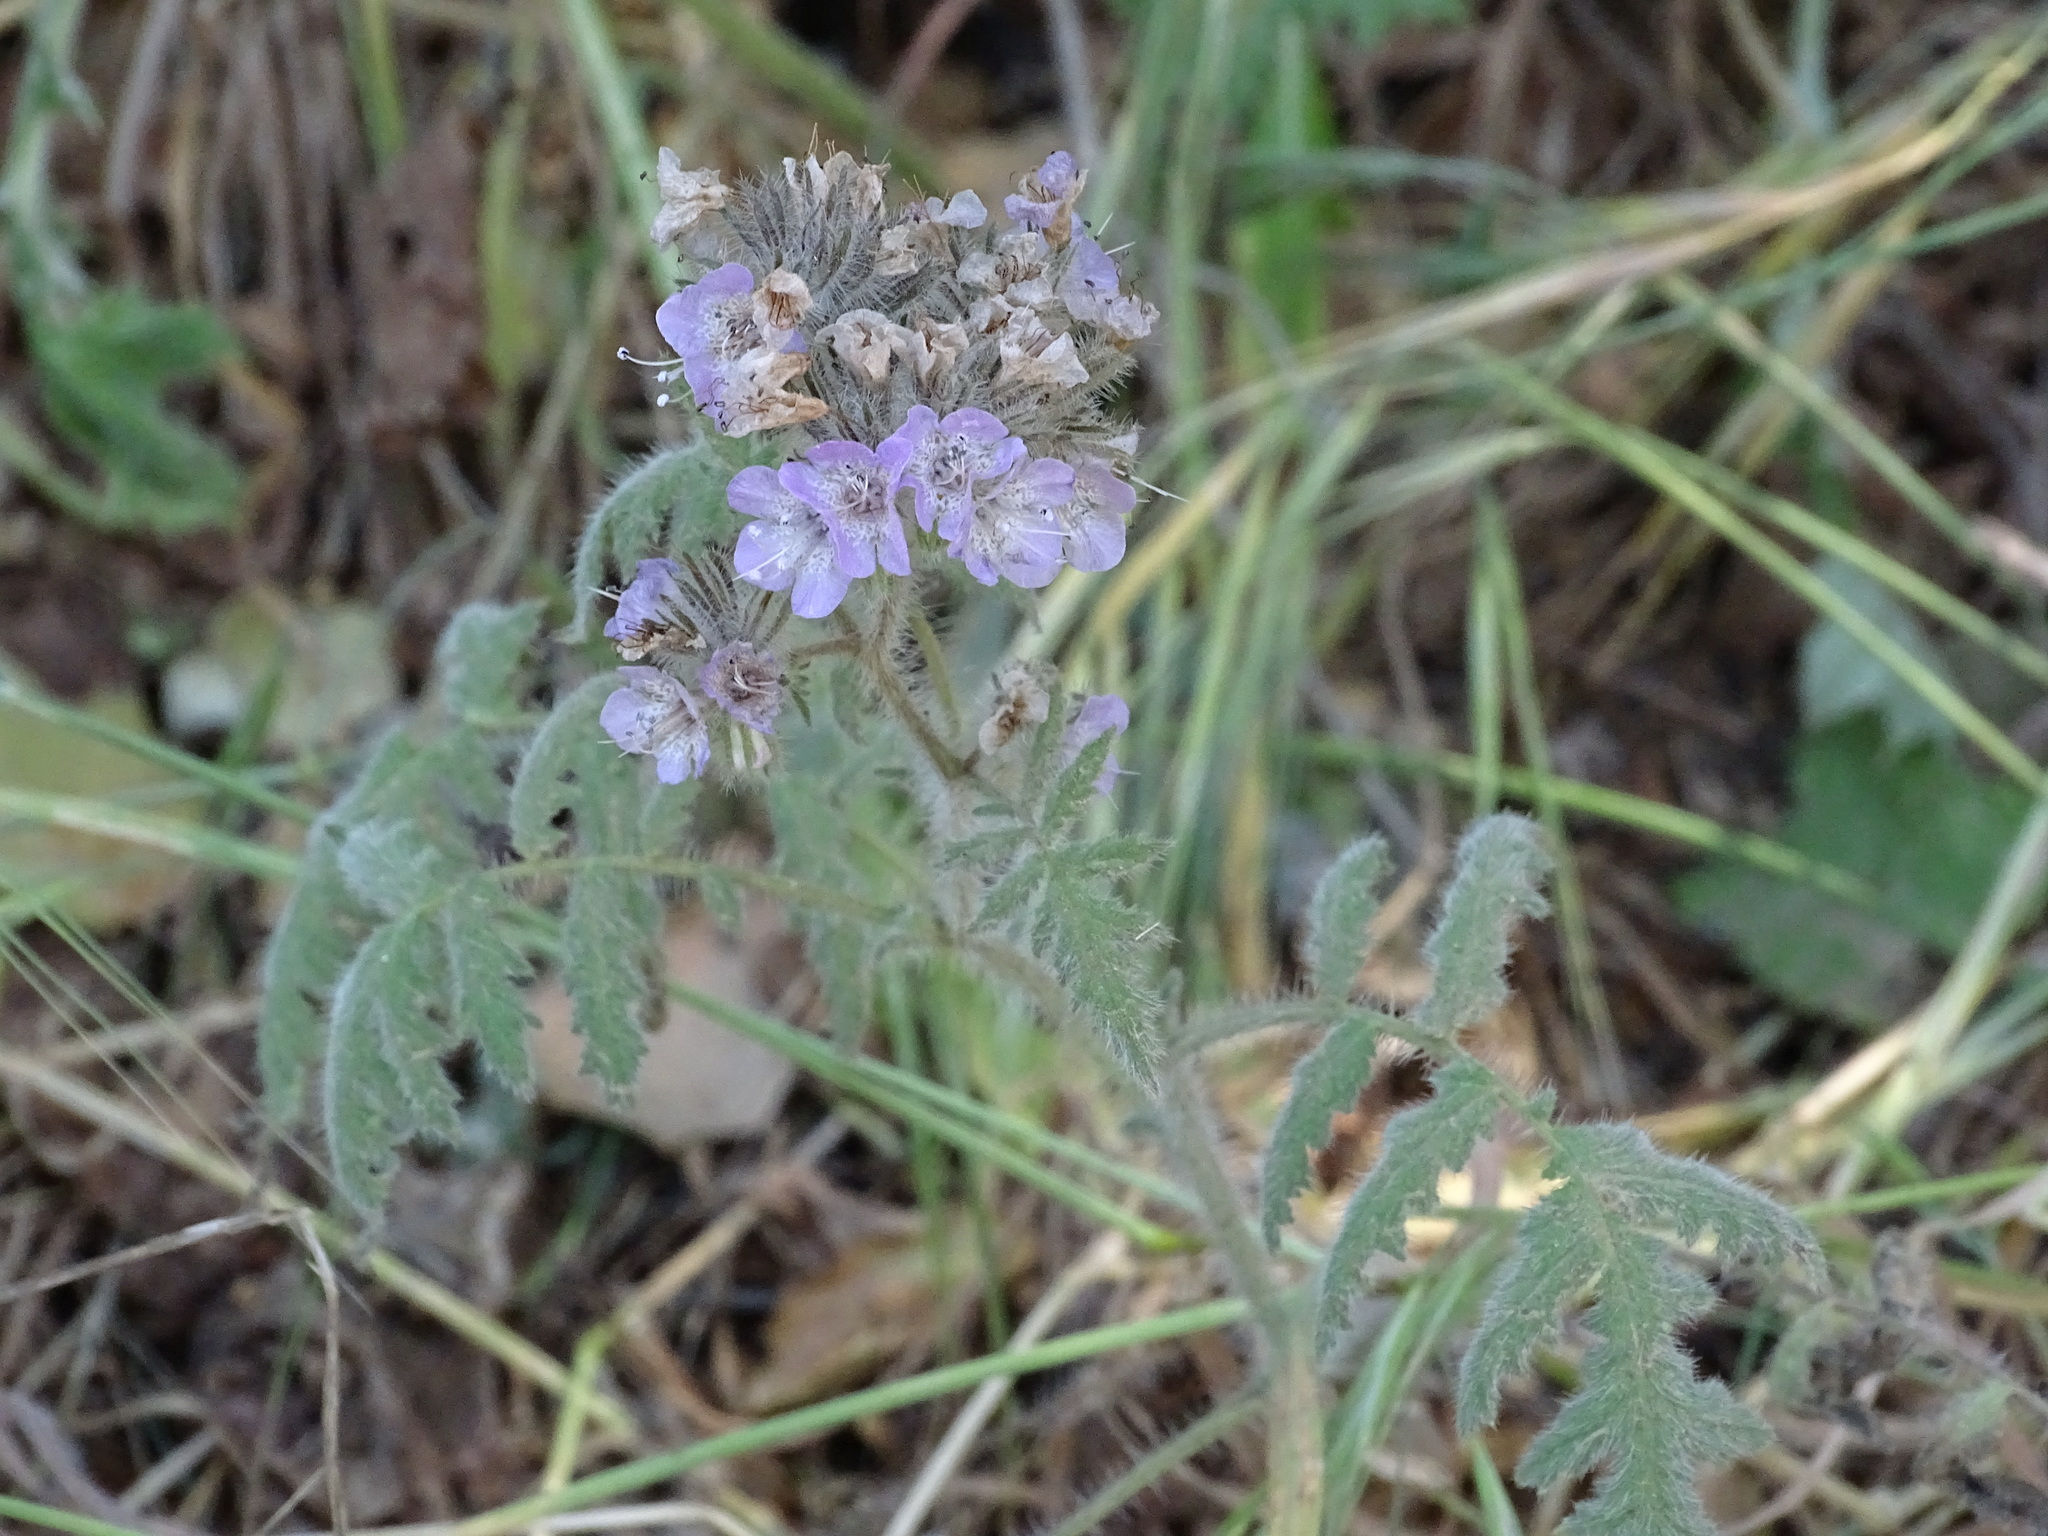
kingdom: Plantae
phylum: Tracheophyta
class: Magnoliopsida
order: Boraginales
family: Hydrophyllaceae
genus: Phacelia
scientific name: Phacelia cicutaria
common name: Caterpillar phacelia
